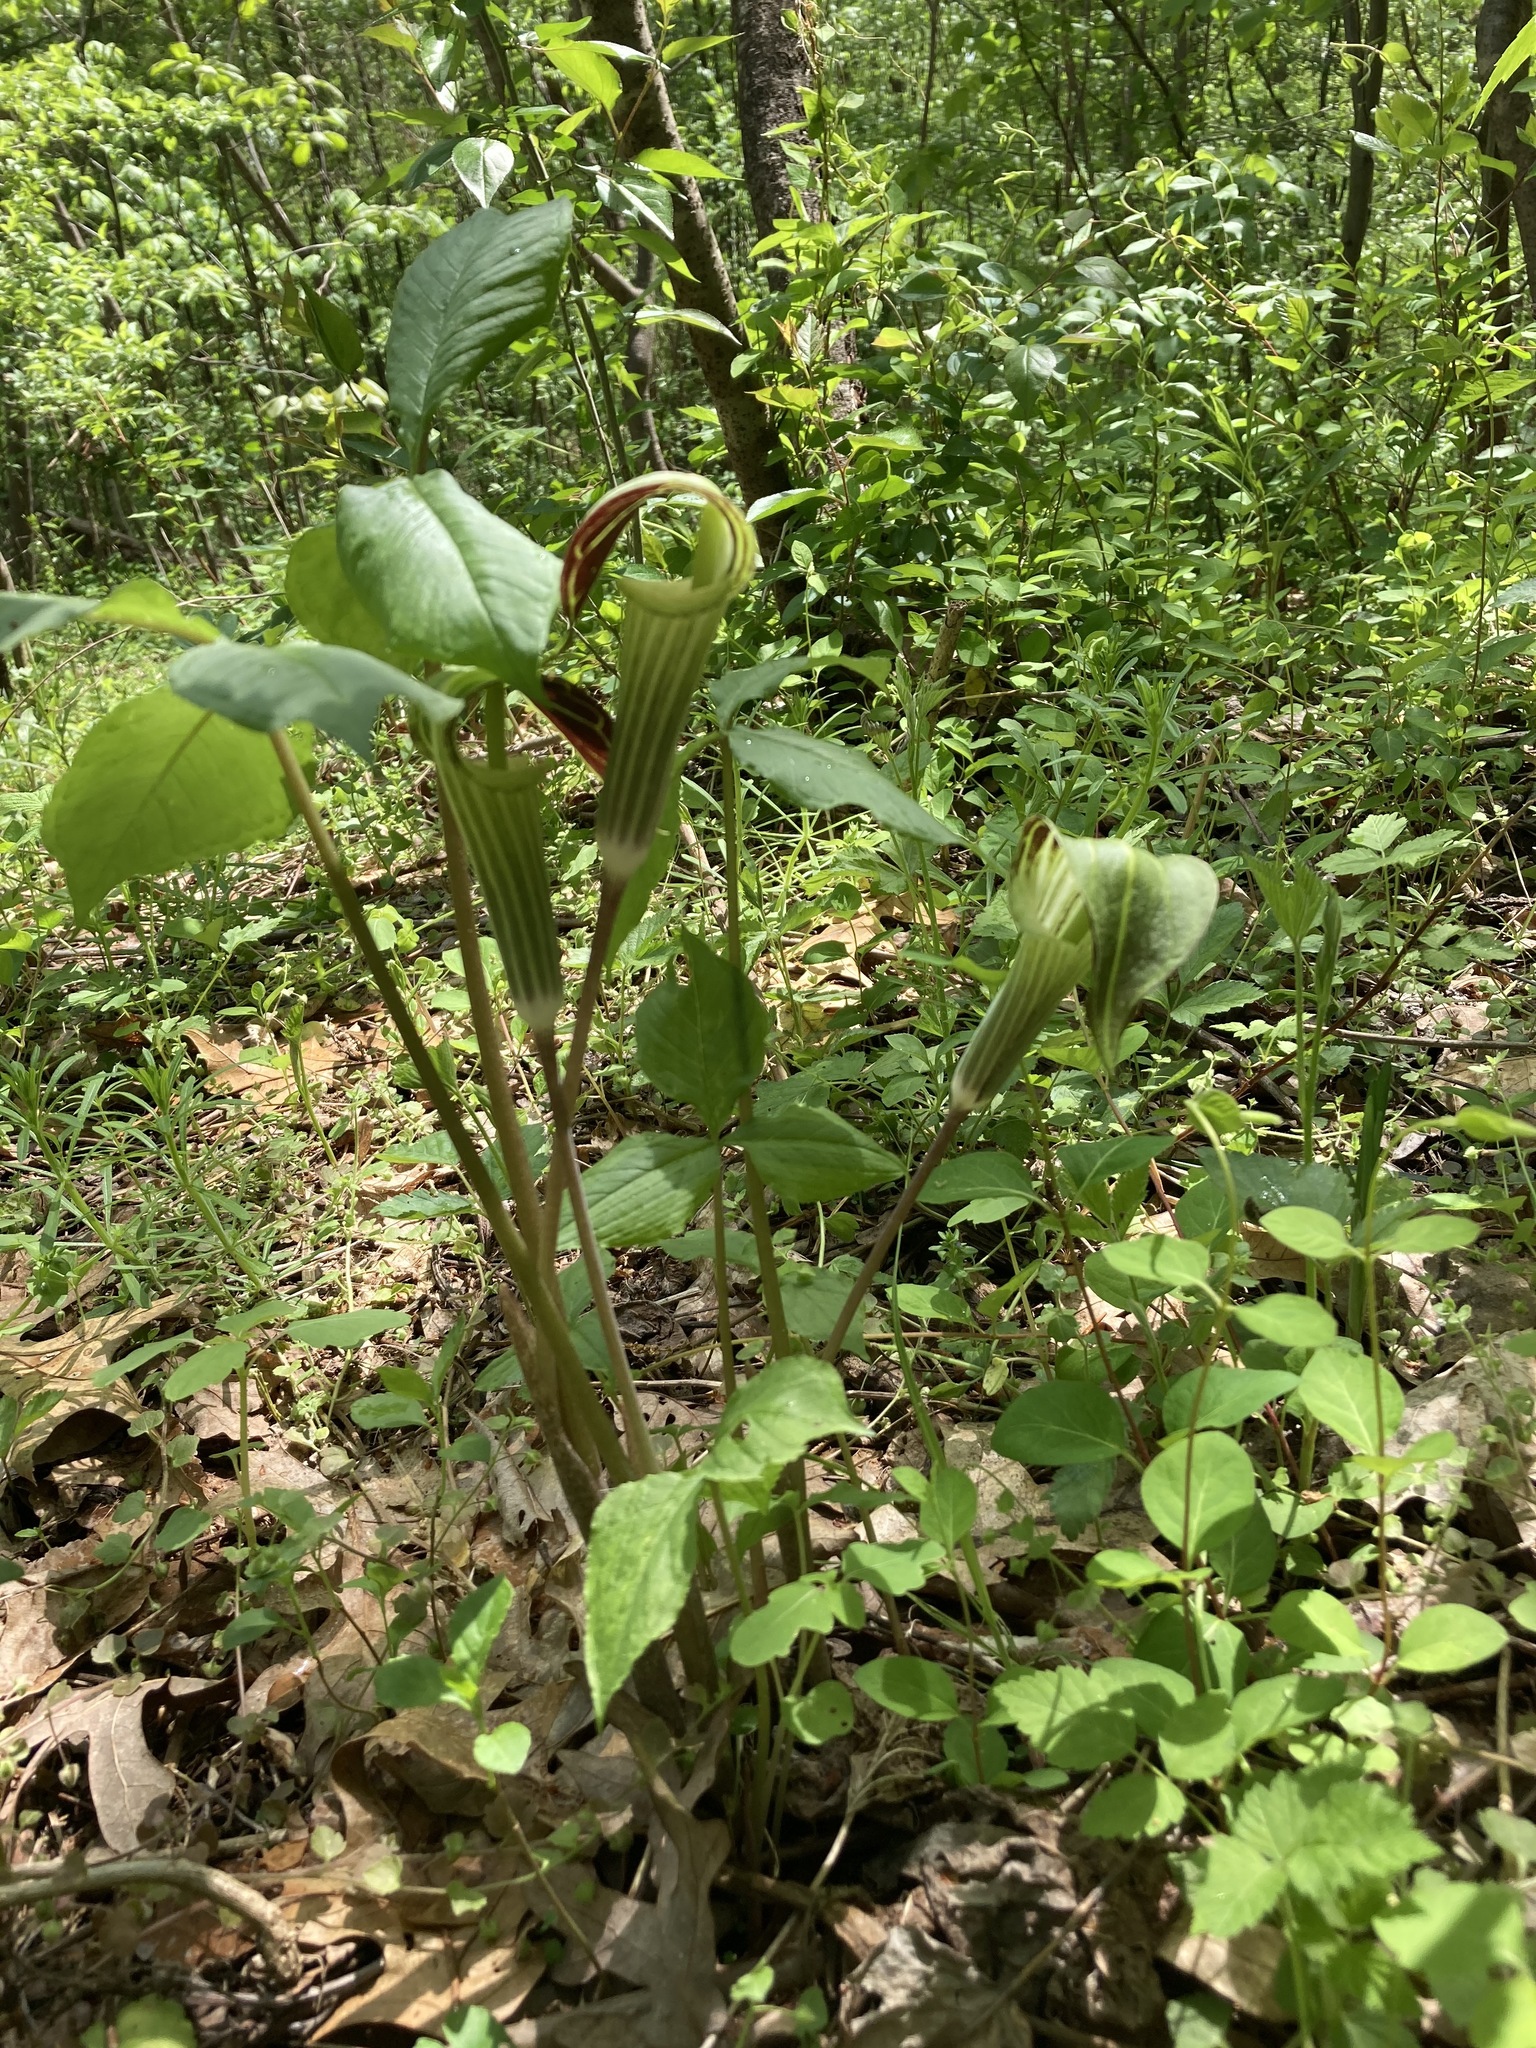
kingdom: Plantae
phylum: Tracheophyta
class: Liliopsida
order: Alismatales
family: Araceae
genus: Arisaema
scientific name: Arisaema triphyllum
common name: Jack-in-the-pulpit
